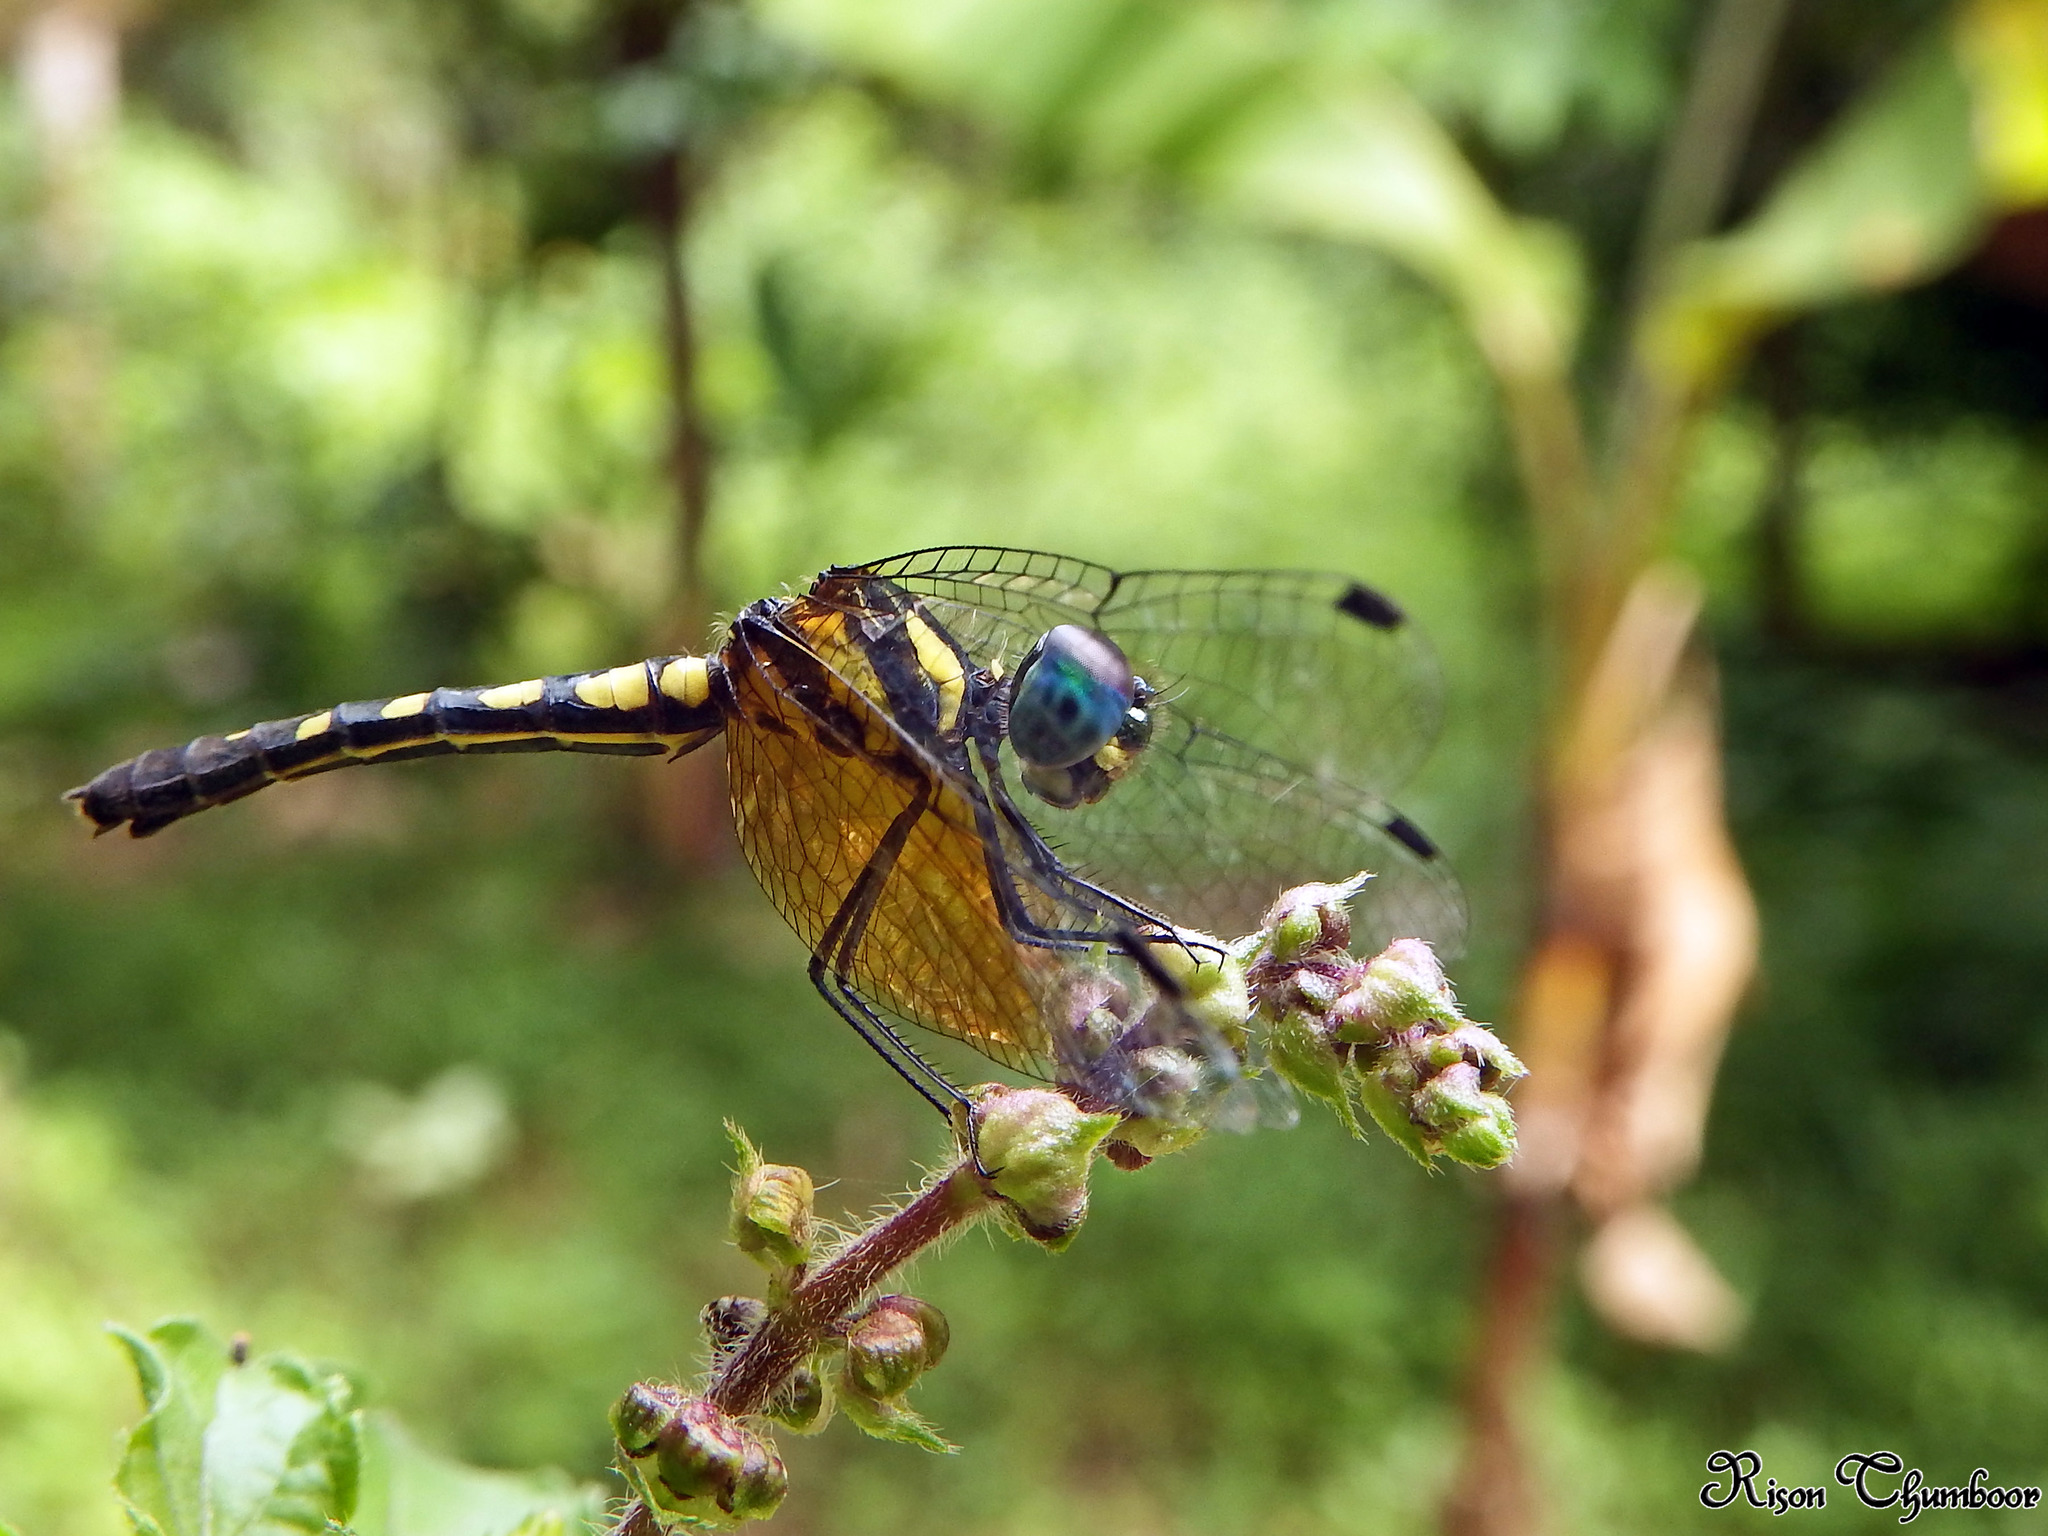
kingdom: Animalia
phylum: Arthropoda
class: Insecta
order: Odonata
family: Libellulidae
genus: Tetrathemis
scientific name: Tetrathemis platyptera
